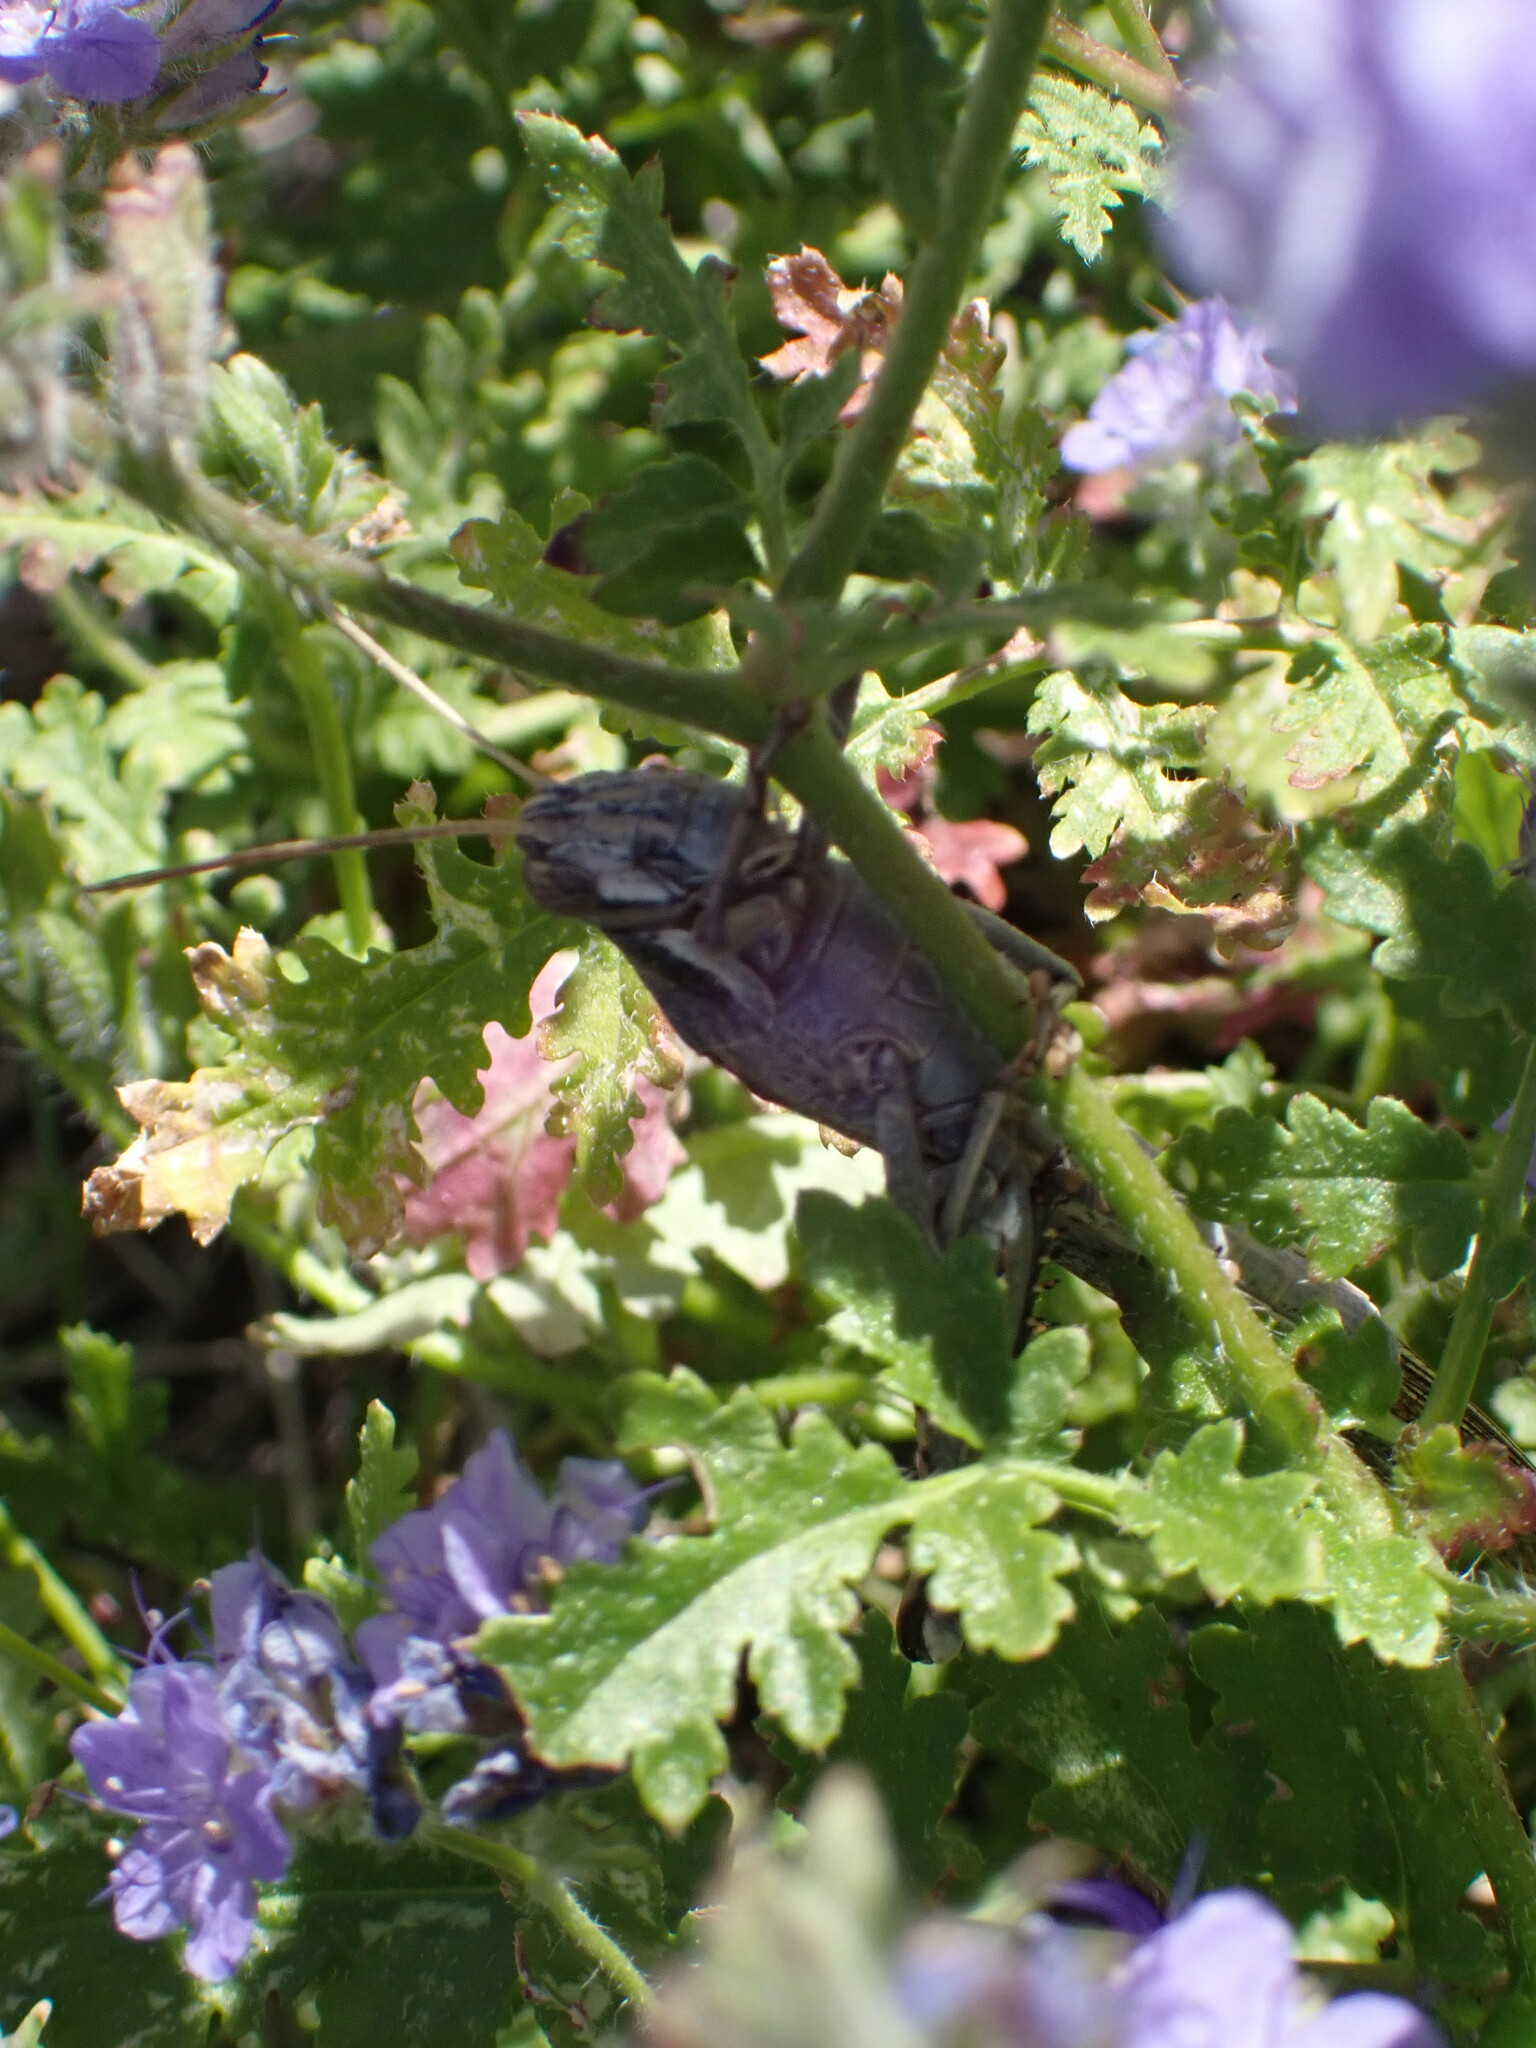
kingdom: Animalia
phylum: Arthropoda
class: Insecta
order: Orthoptera
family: Acrididae
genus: Schistocerca
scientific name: Schistocerca nitens
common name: Vagrant grasshopper
